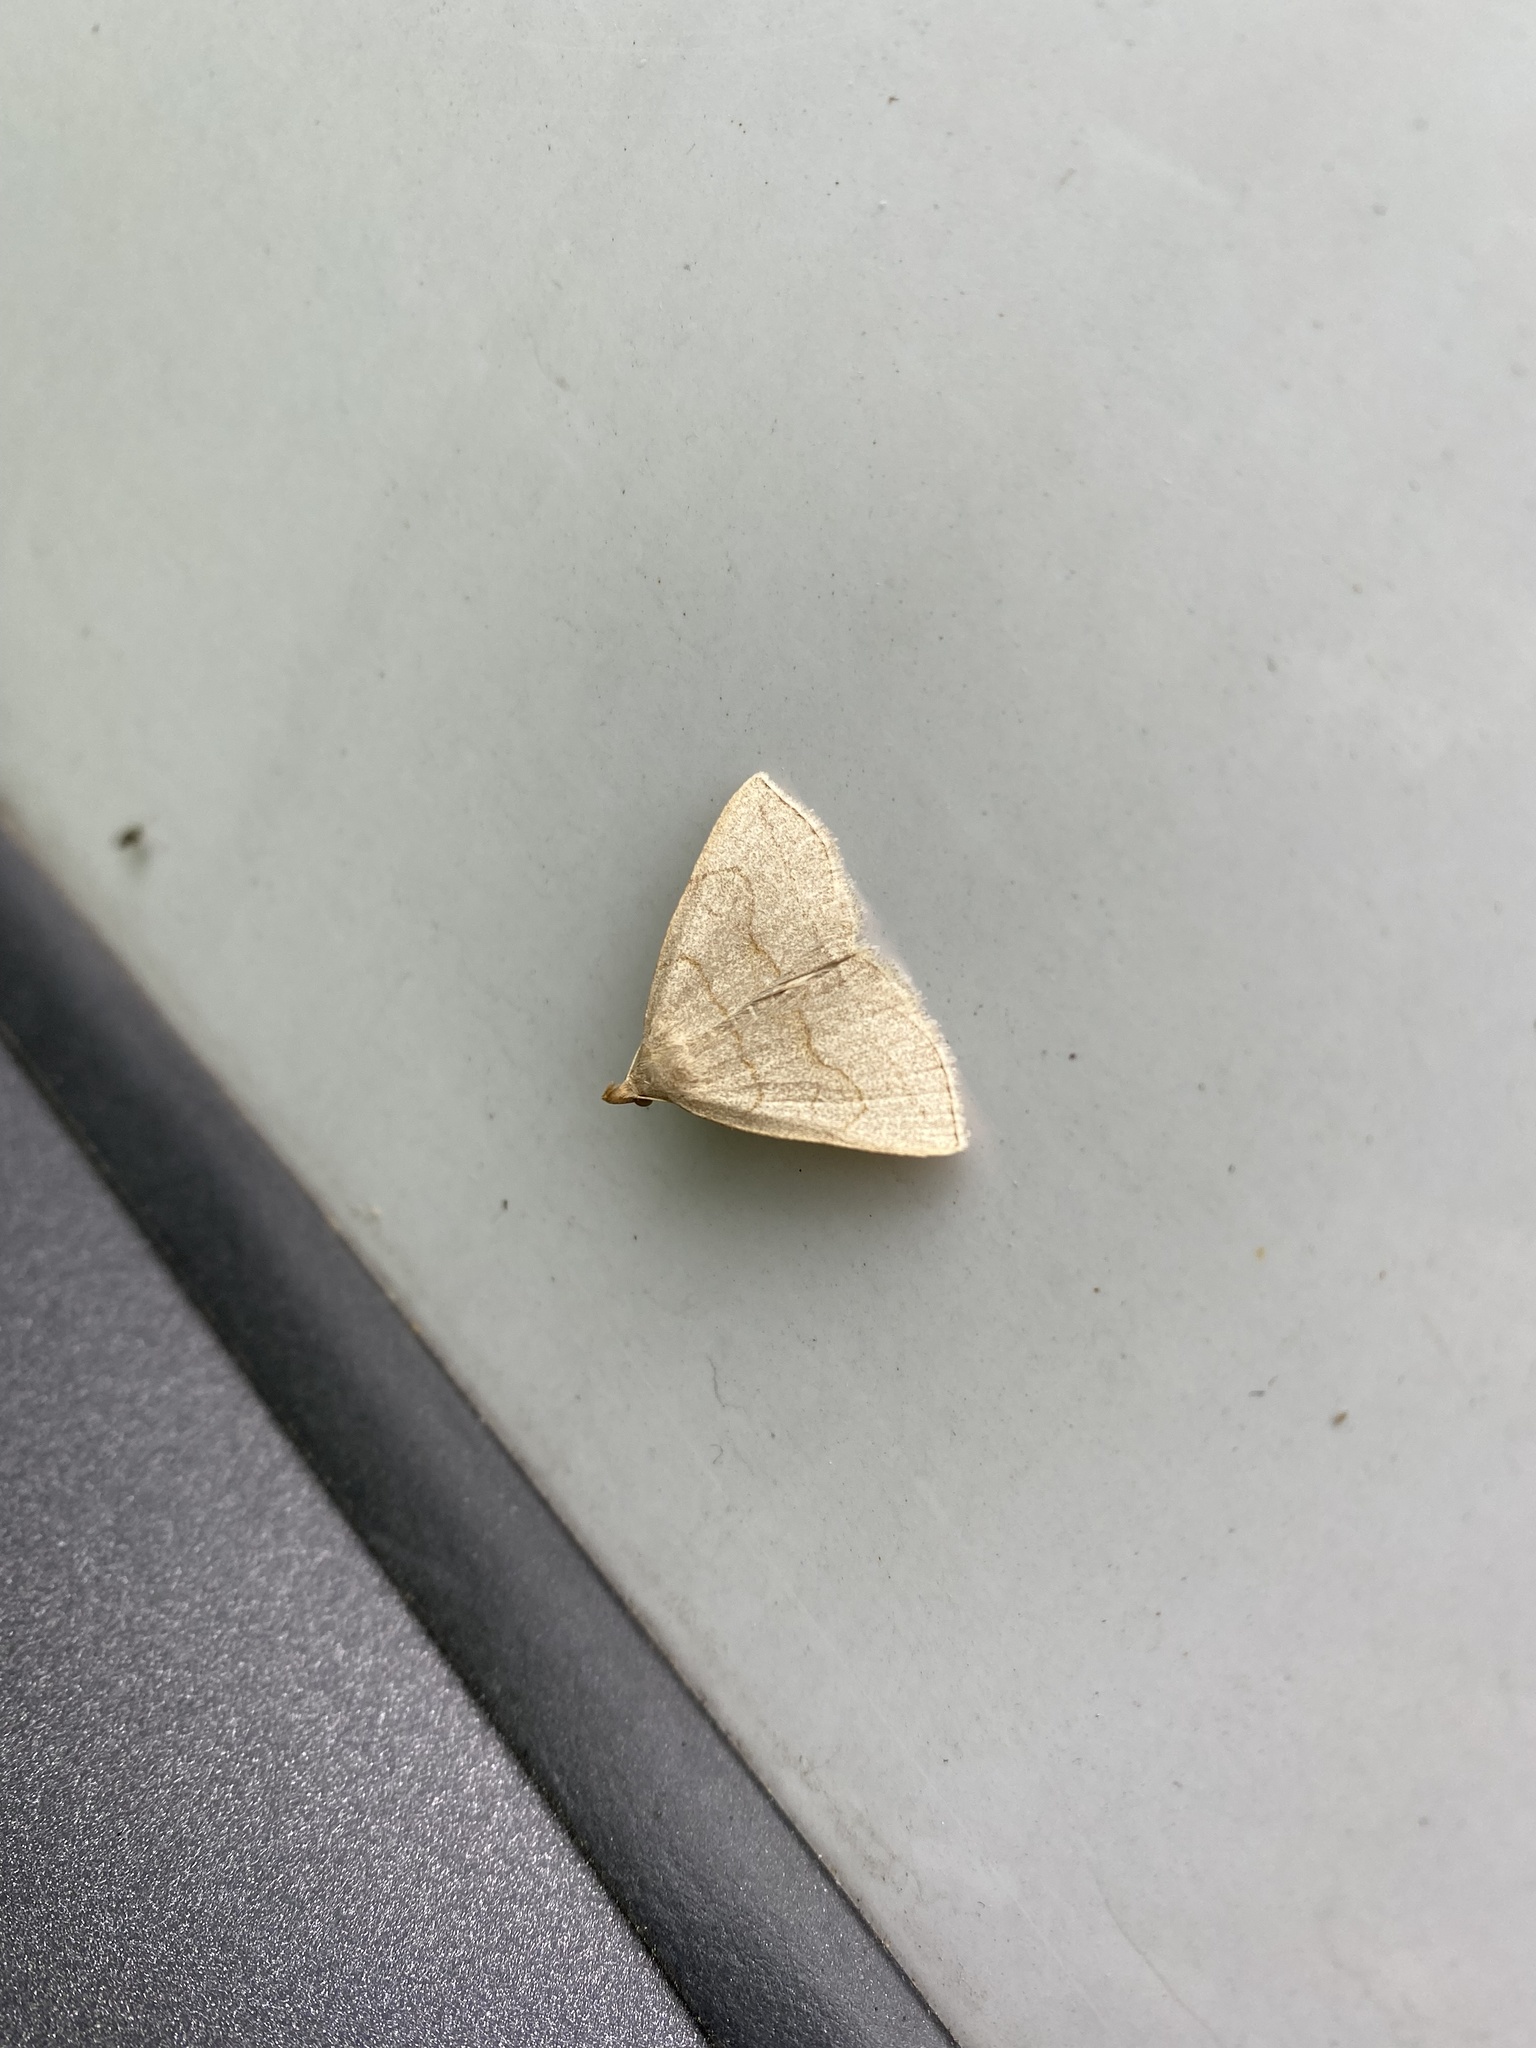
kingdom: Animalia
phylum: Arthropoda
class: Insecta
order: Lepidoptera
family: Erebidae
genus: Zanclognatha
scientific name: Zanclognatha pedipilalis
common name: Grayish fan-foot
